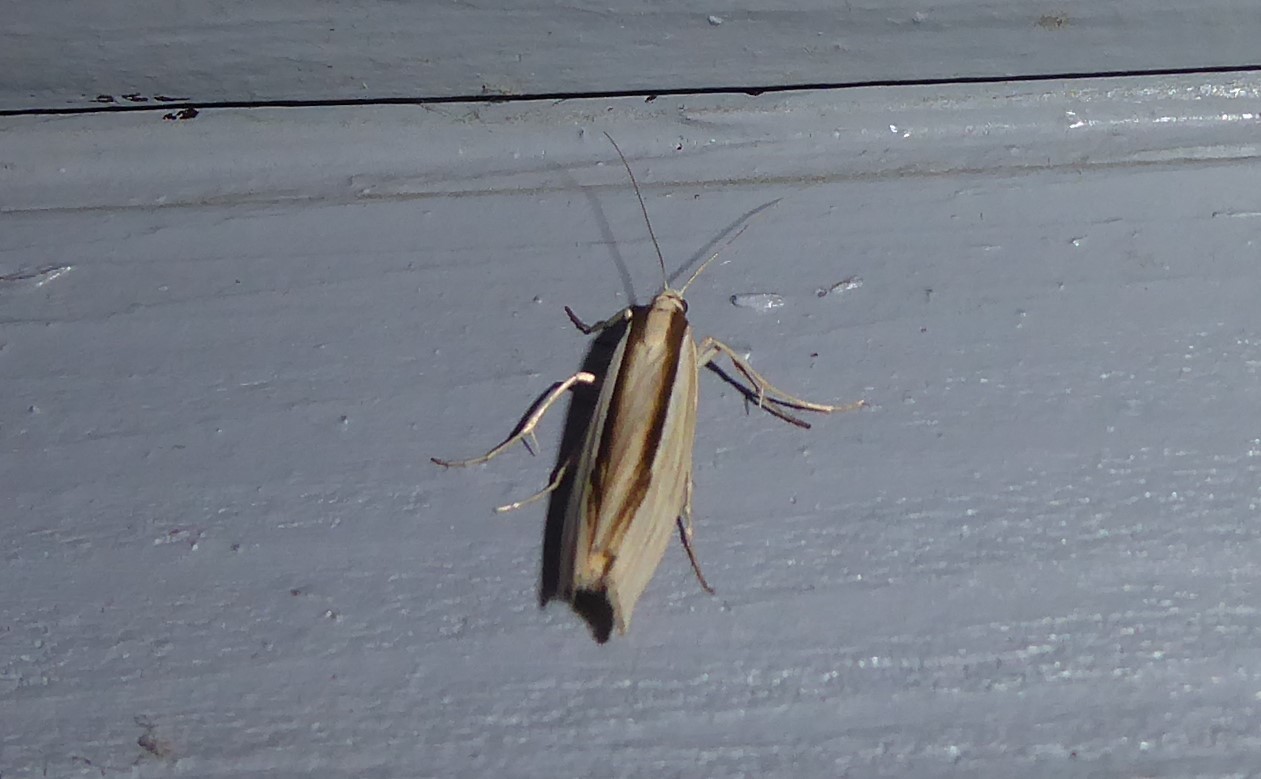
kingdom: Animalia
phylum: Arthropoda
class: Insecta
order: Lepidoptera
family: Crambidae
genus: Orocrambus
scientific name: Orocrambus ramosellus
